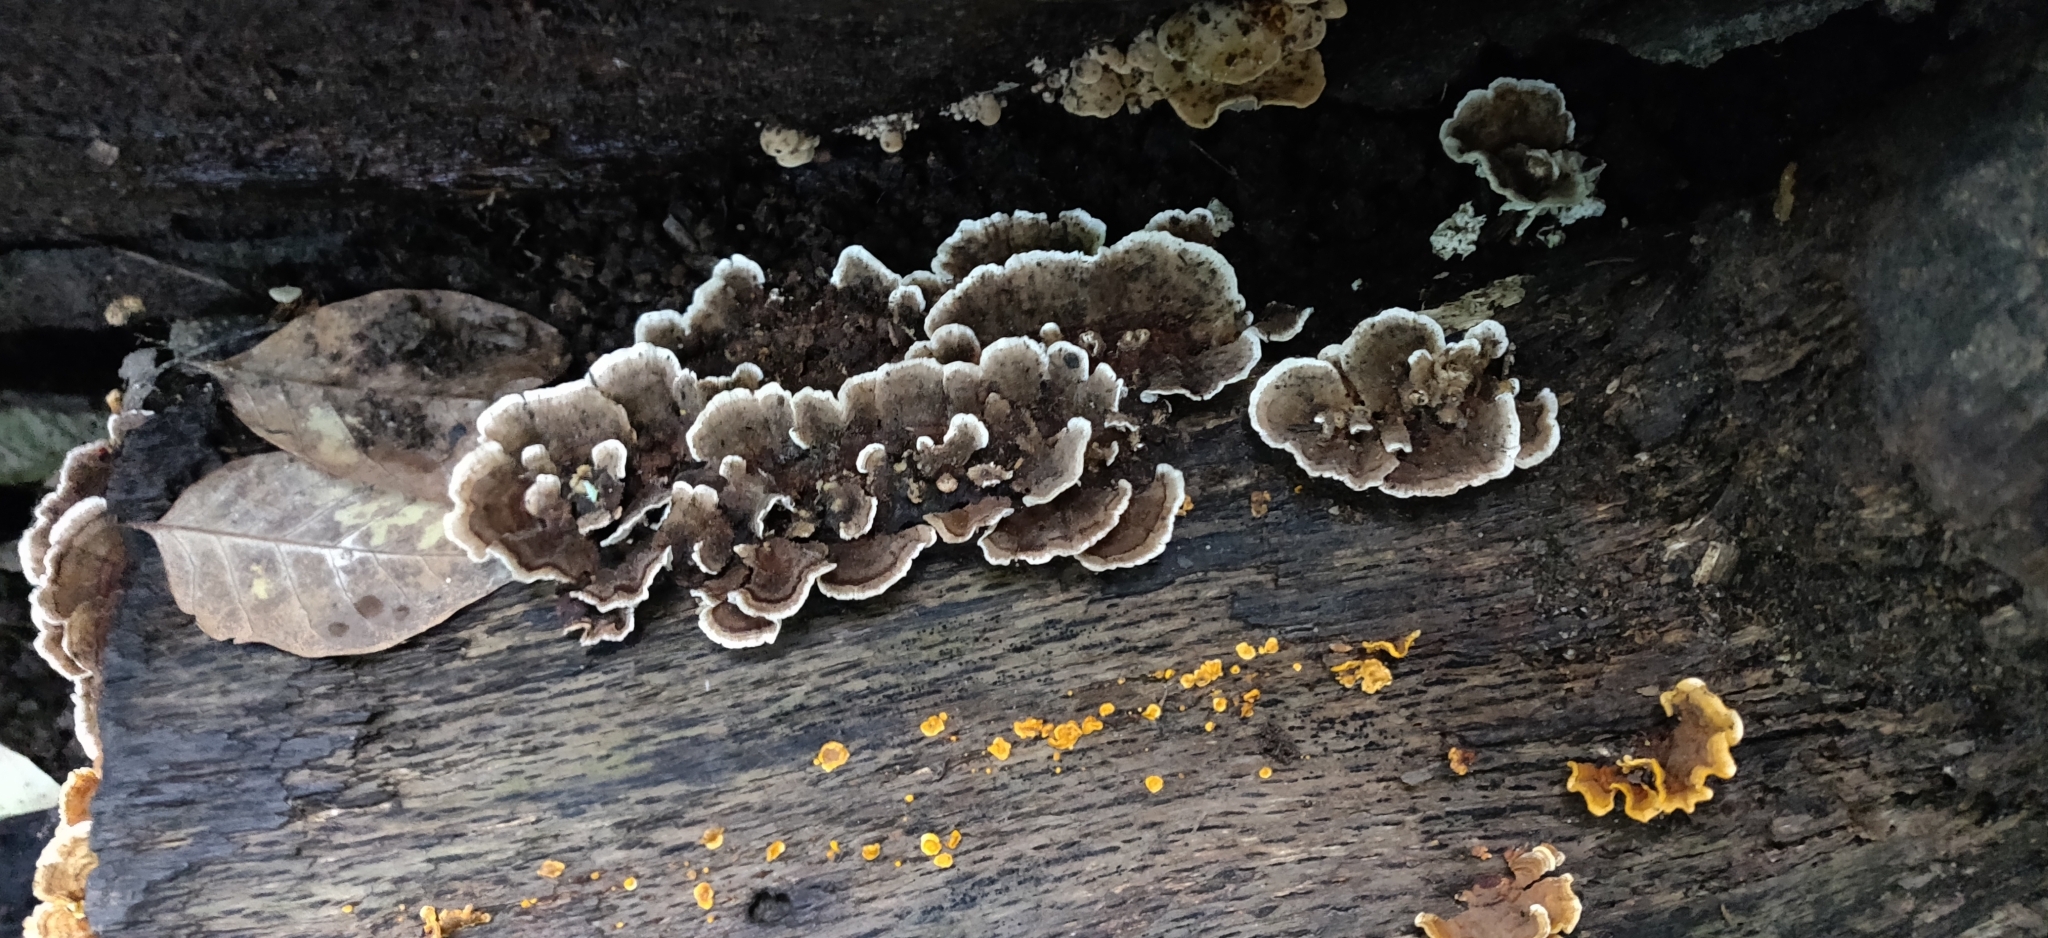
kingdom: Fungi
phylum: Basidiomycota
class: Agaricomycetes
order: Polyporales
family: Polyporaceae
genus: Trametes
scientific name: Trametes versicolor
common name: Turkeytail
